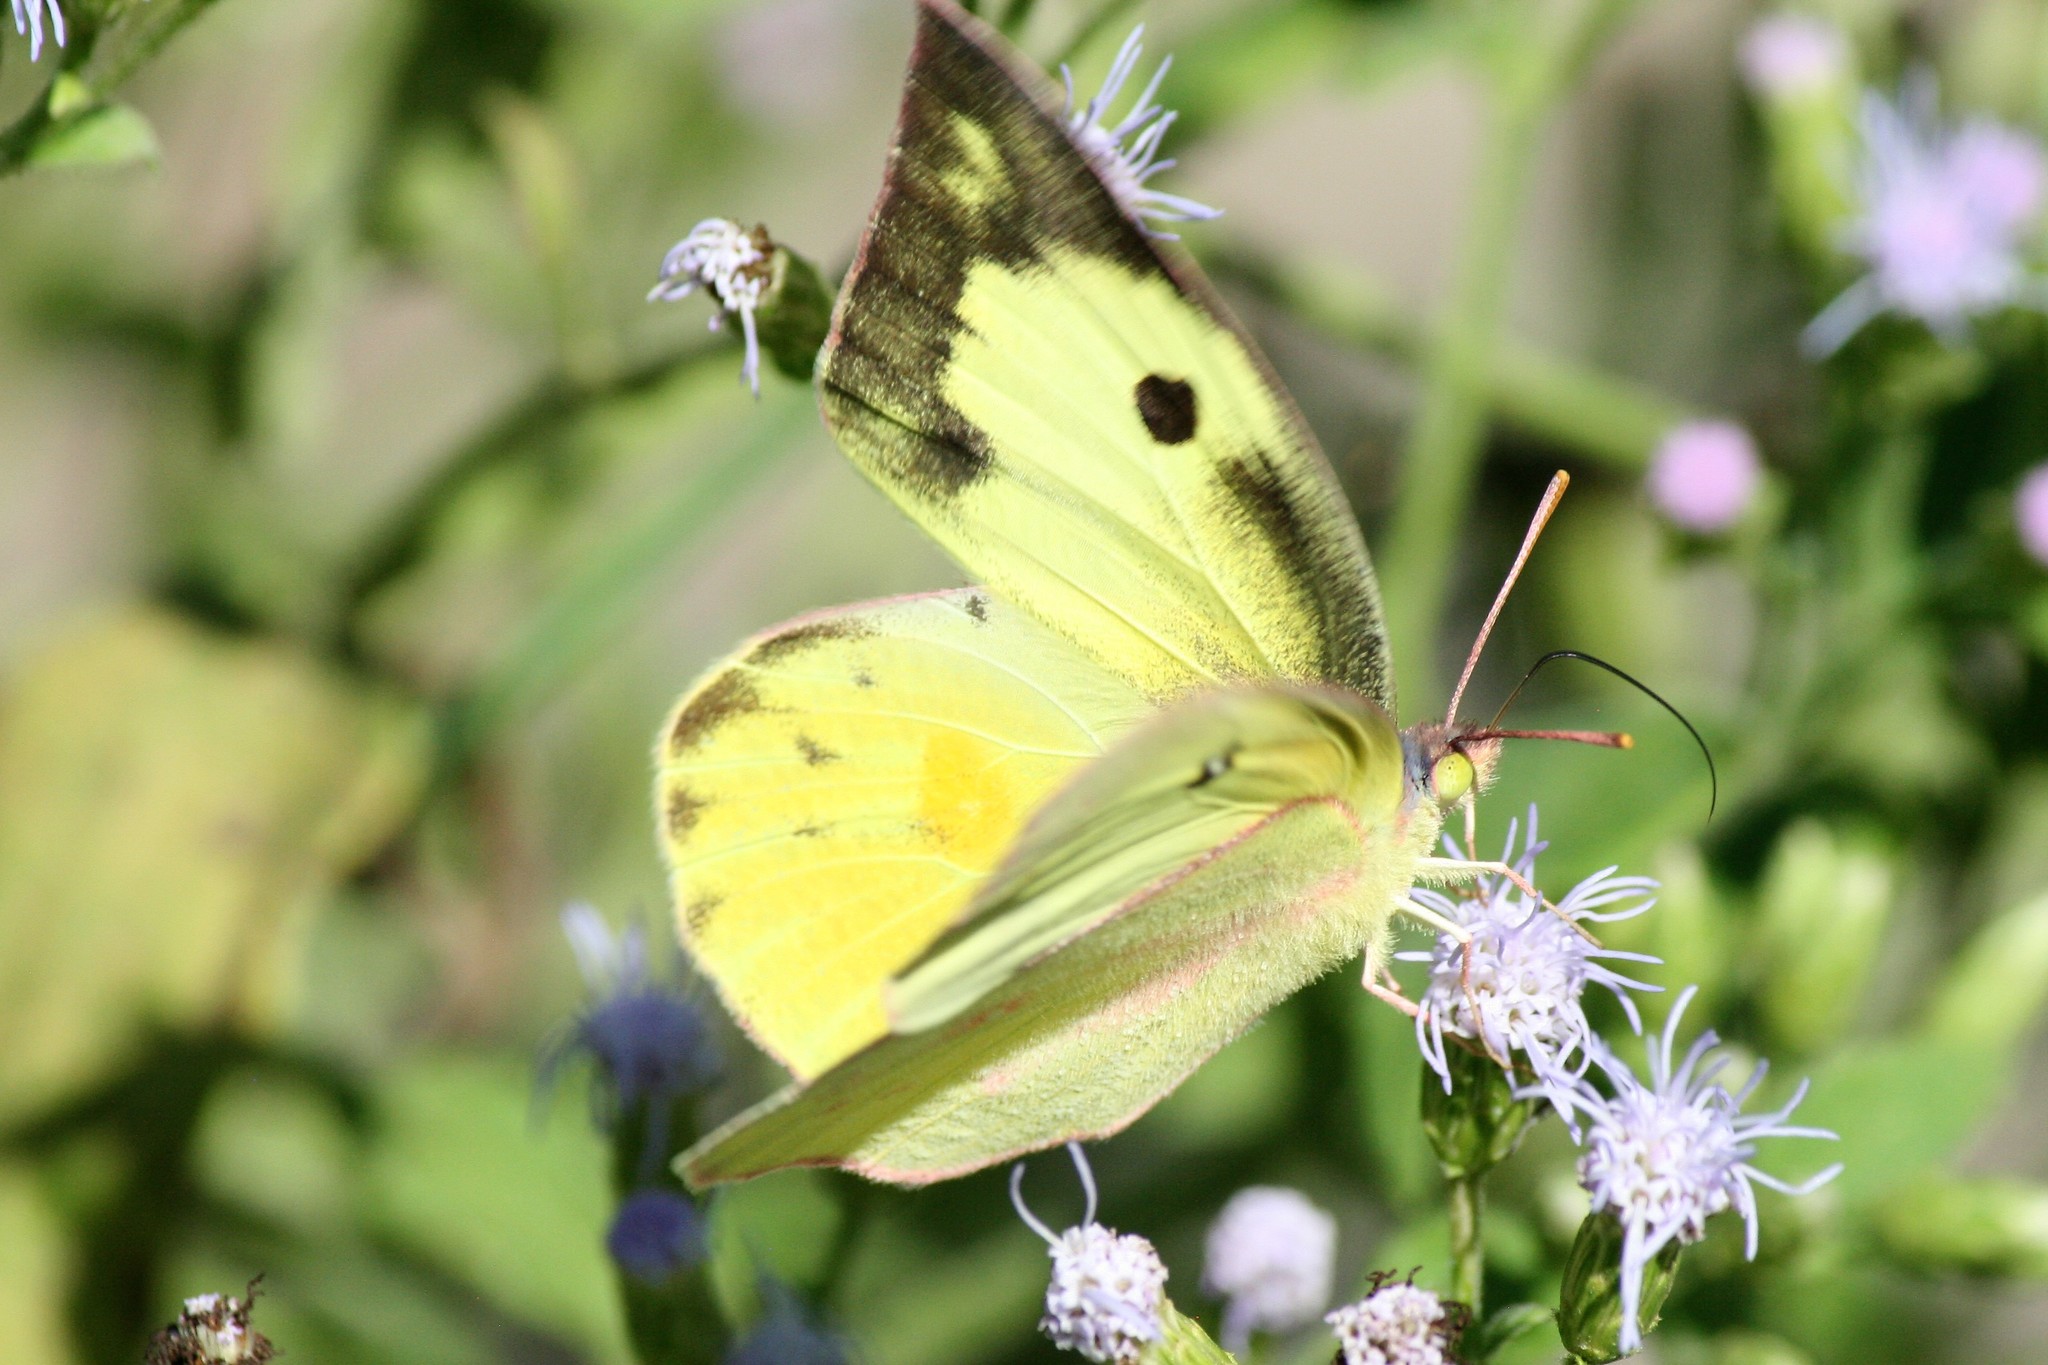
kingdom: Animalia
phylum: Arthropoda
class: Insecta
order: Lepidoptera
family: Pieridae
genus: Zerene
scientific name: Zerene cesonia
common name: Southern dogface
